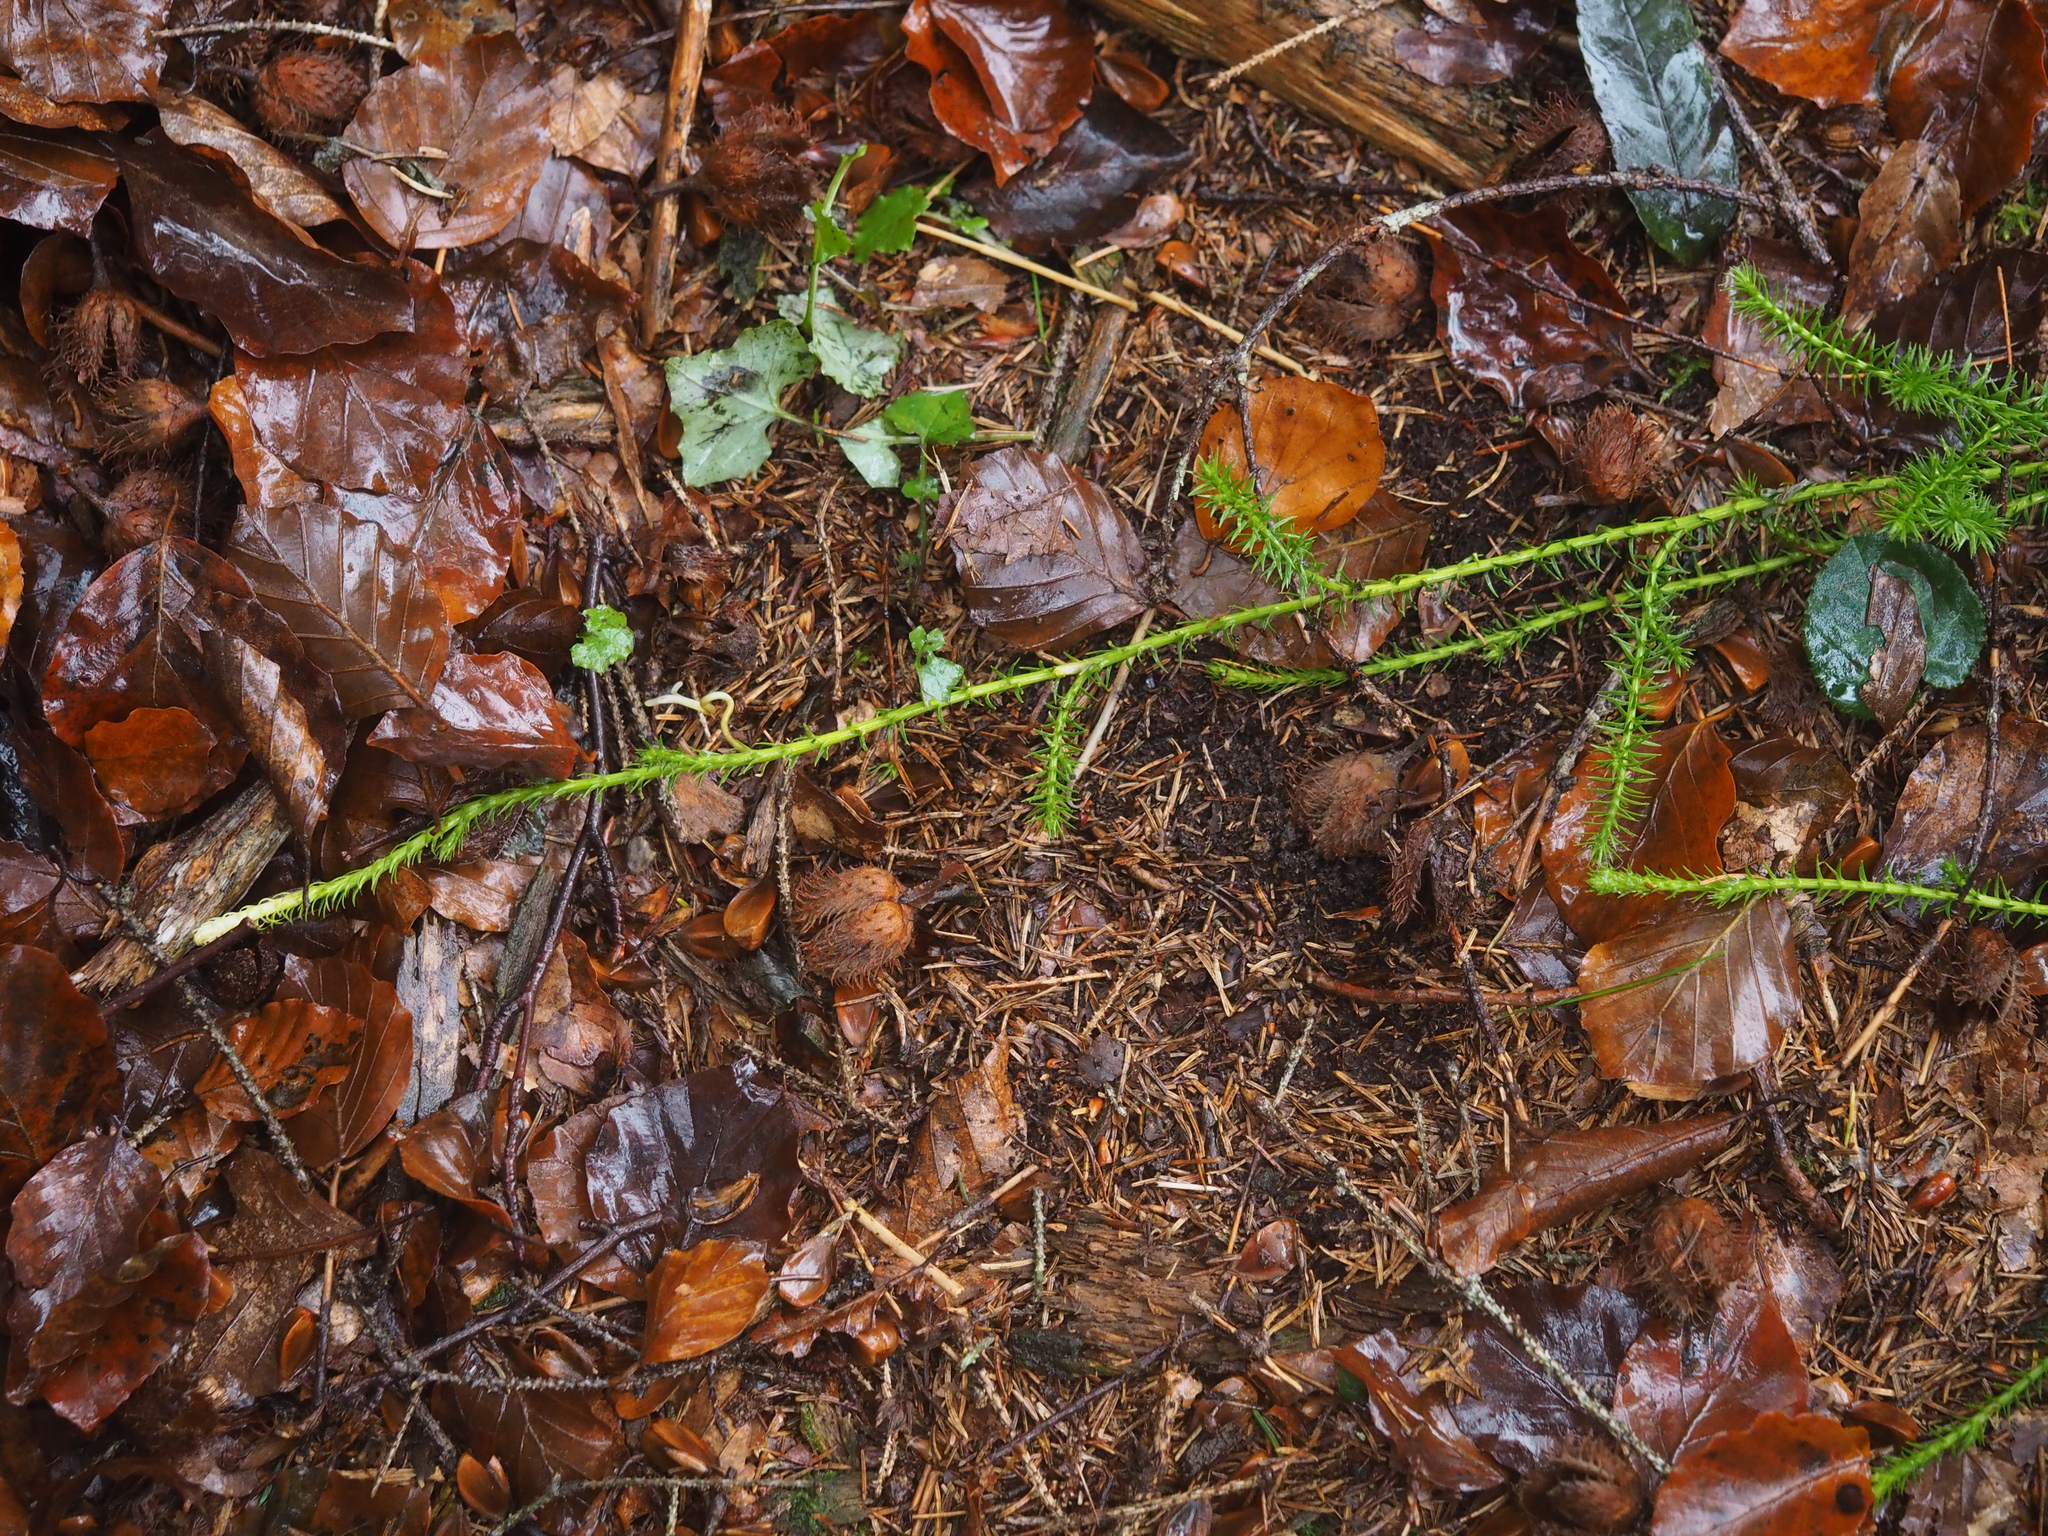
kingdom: Plantae
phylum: Tracheophyta
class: Lycopodiopsida
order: Lycopodiales
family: Lycopodiaceae
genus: Spinulum
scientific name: Spinulum annotinum
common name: Interrupted club-moss
